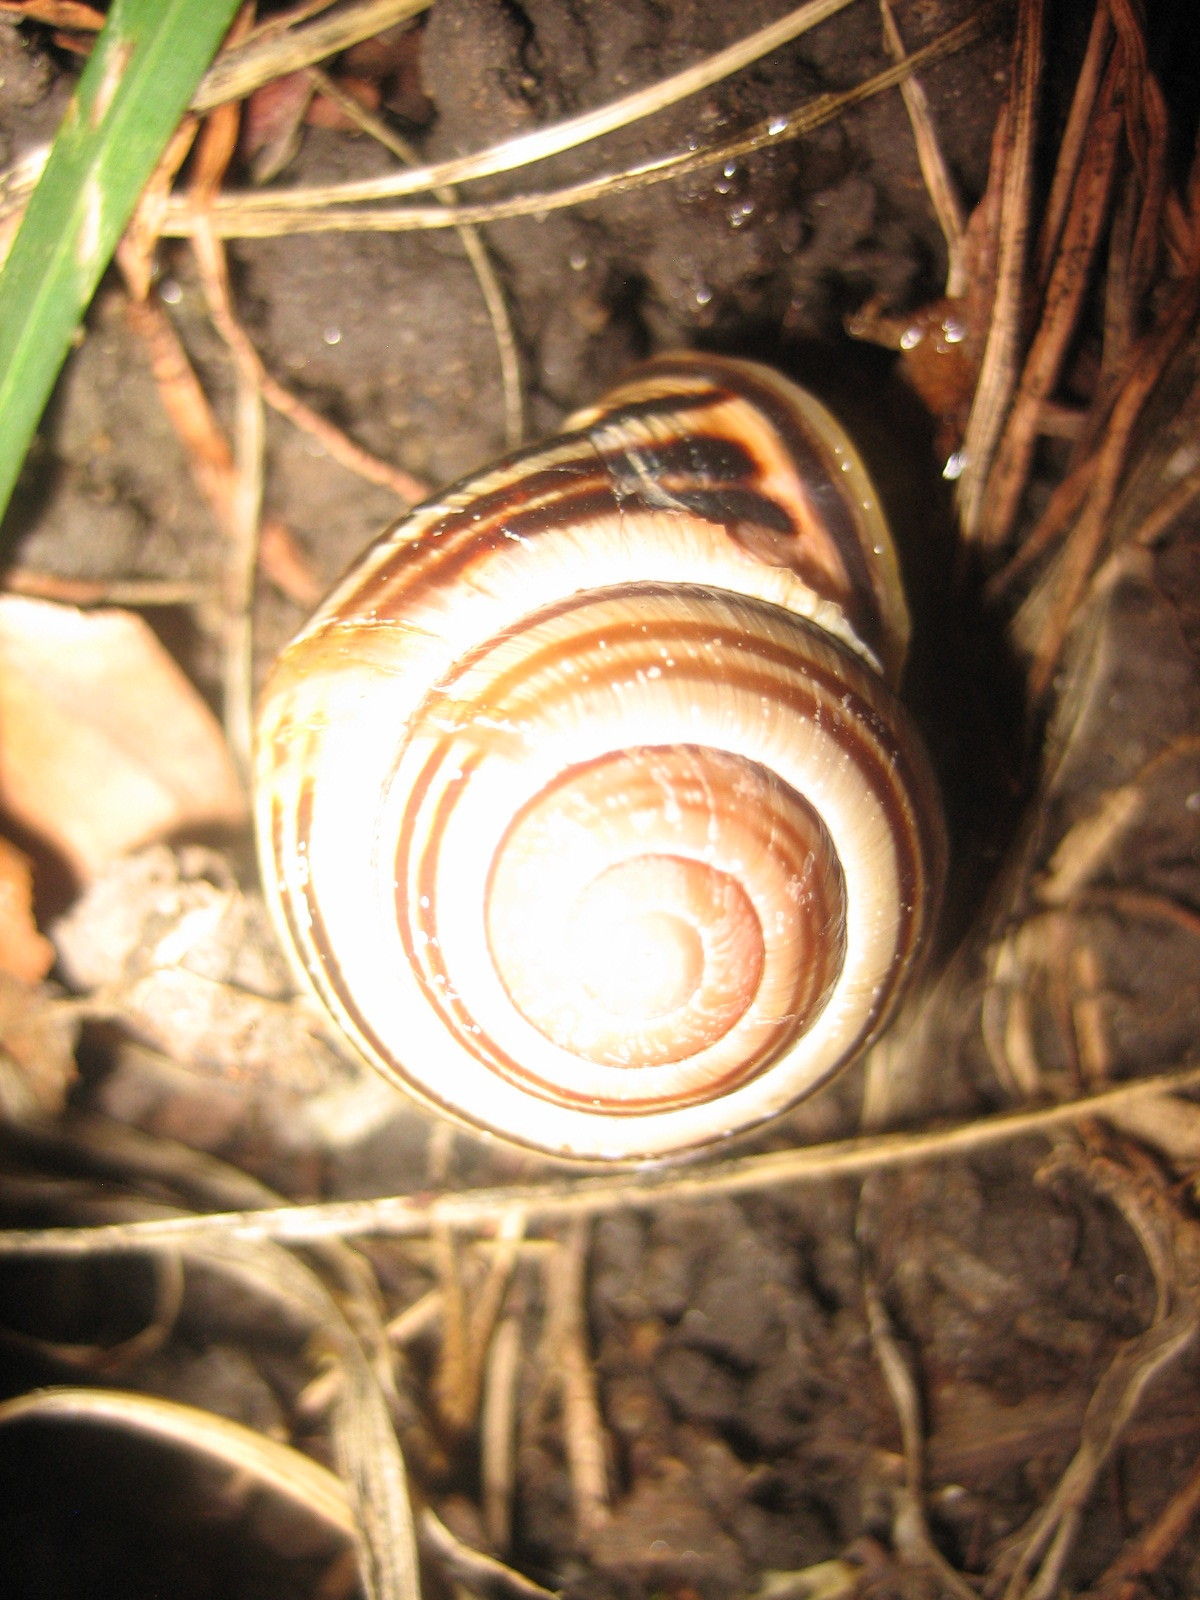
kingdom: Animalia
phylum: Mollusca
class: Gastropoda
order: Stylommatophora
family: Helicidae
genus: Cepaea
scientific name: Cepaea nemoralis
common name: Grovesnail
